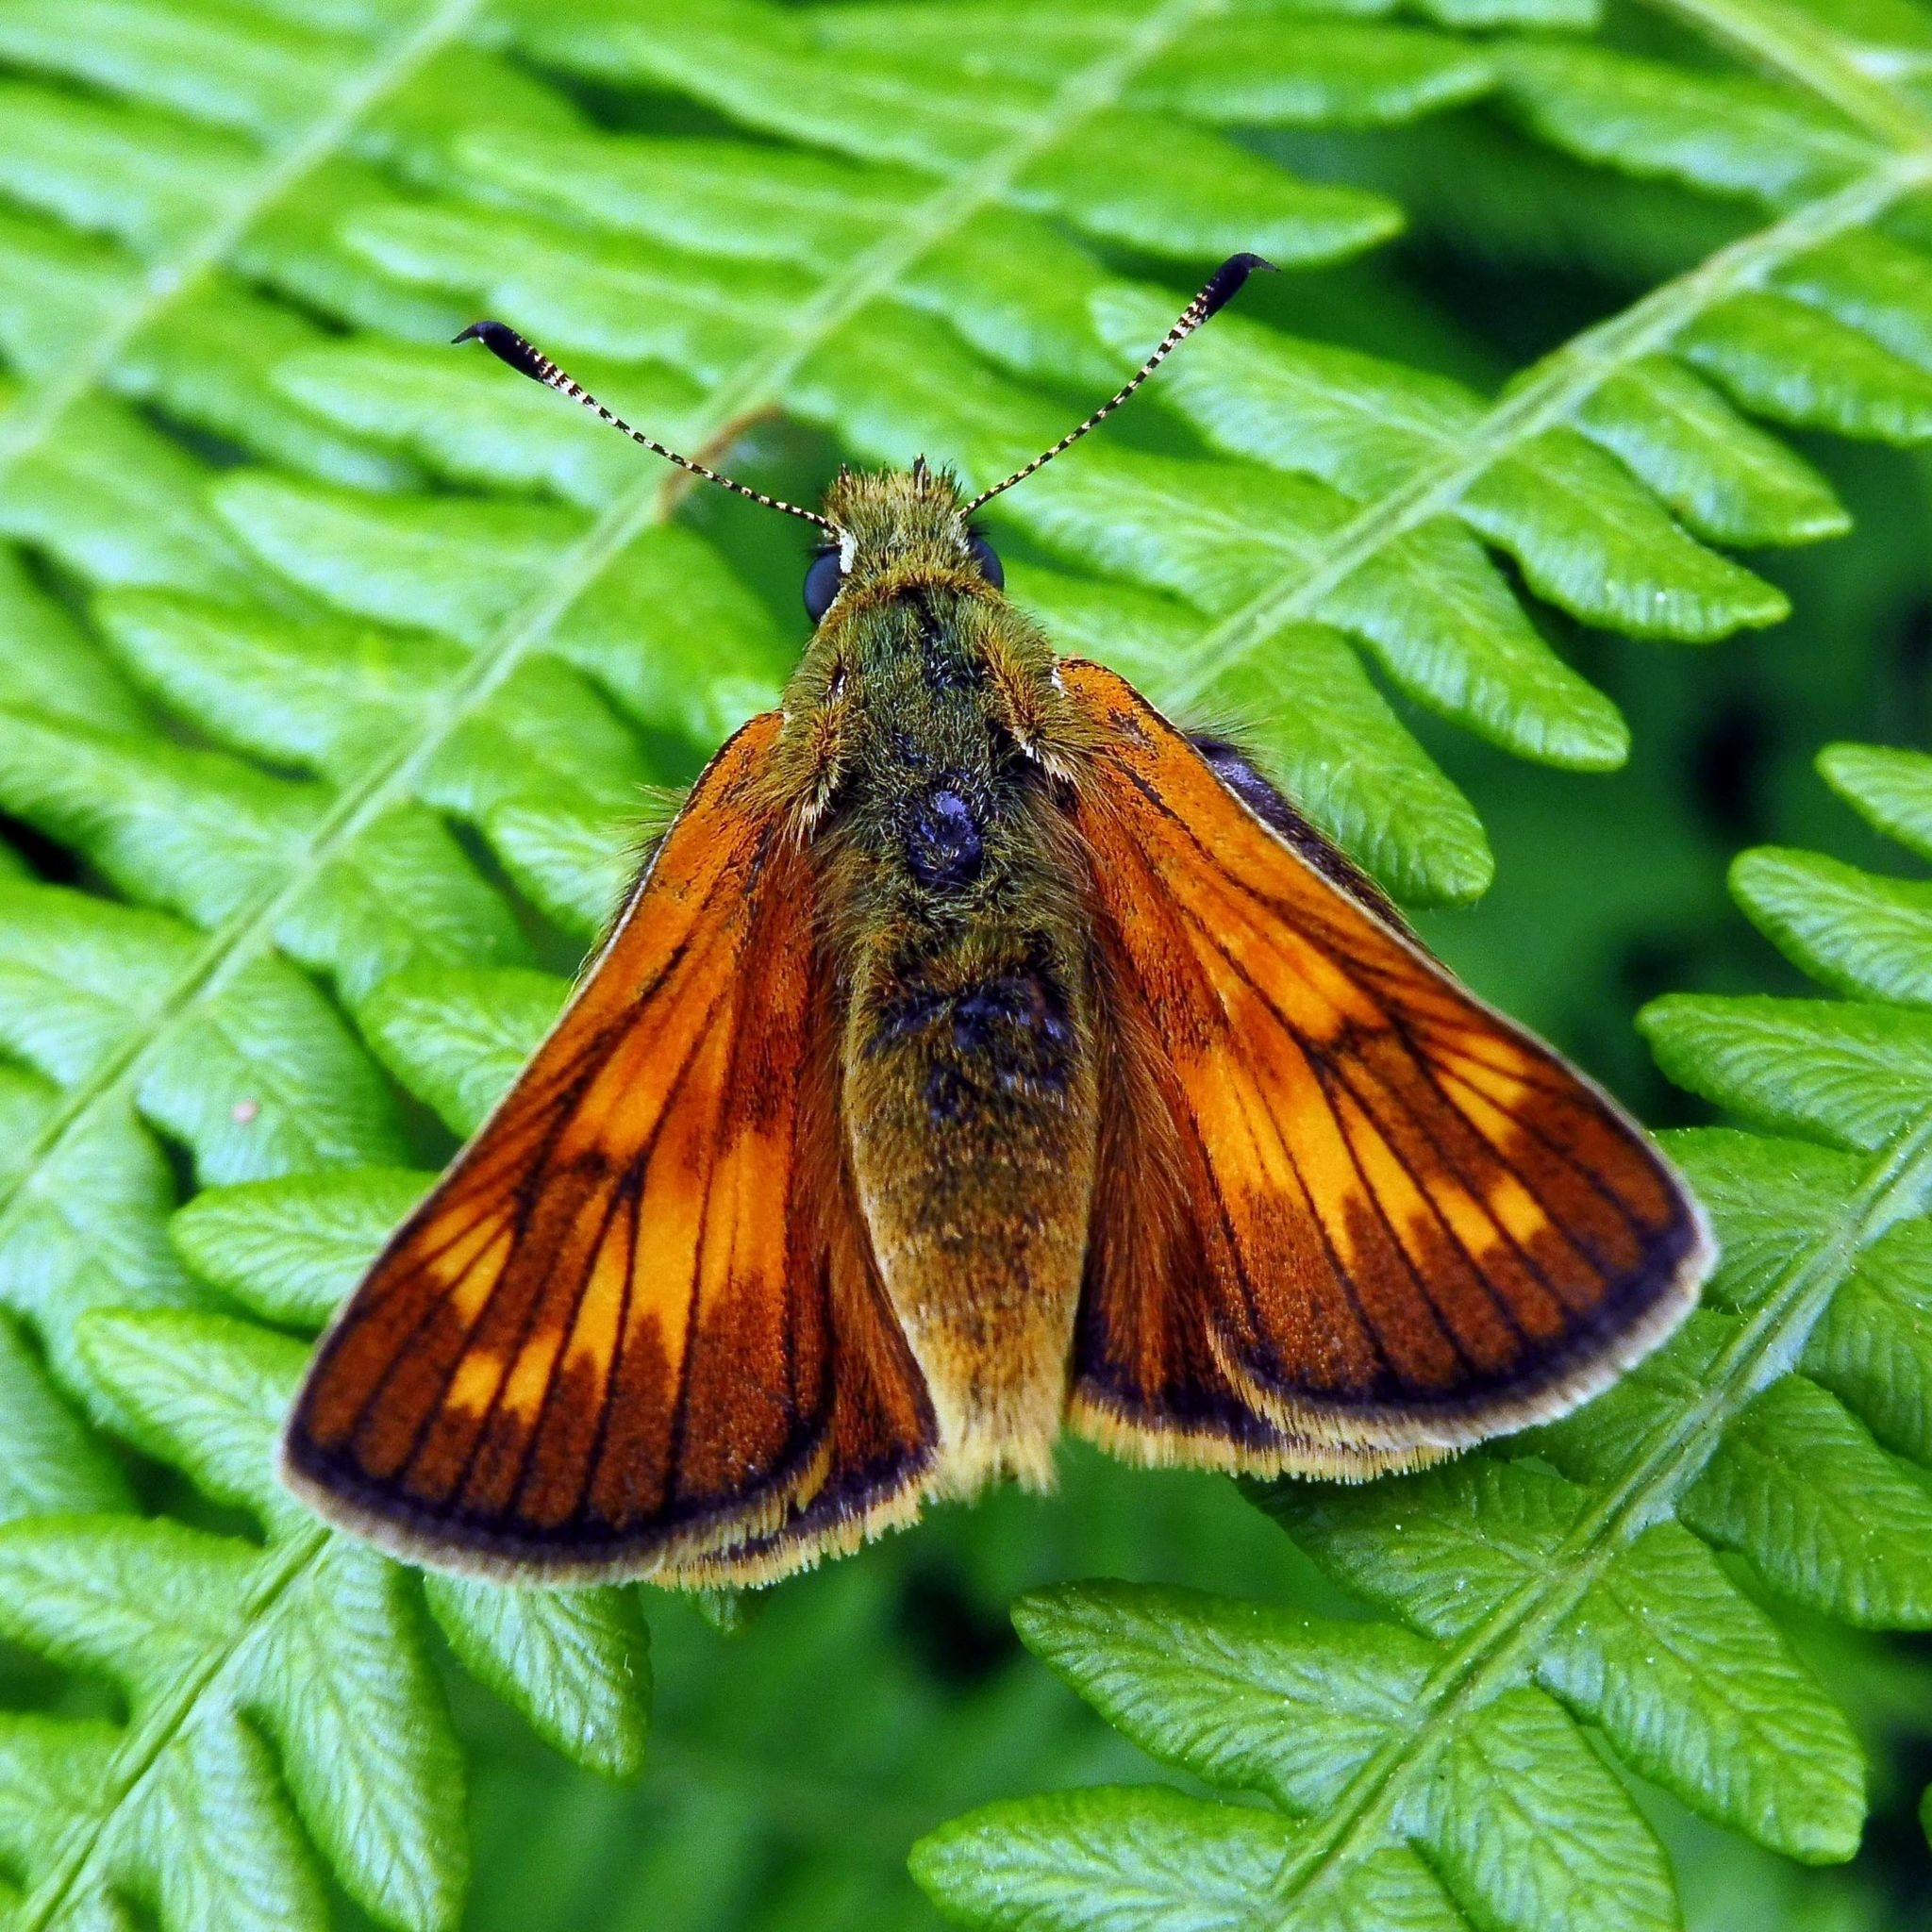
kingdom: Animalia
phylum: Arthropoda
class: Insecta
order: Lepidoptera
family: Hesperiidae
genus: Ochlodes
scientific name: Ochlodes venata
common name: Large skipper
